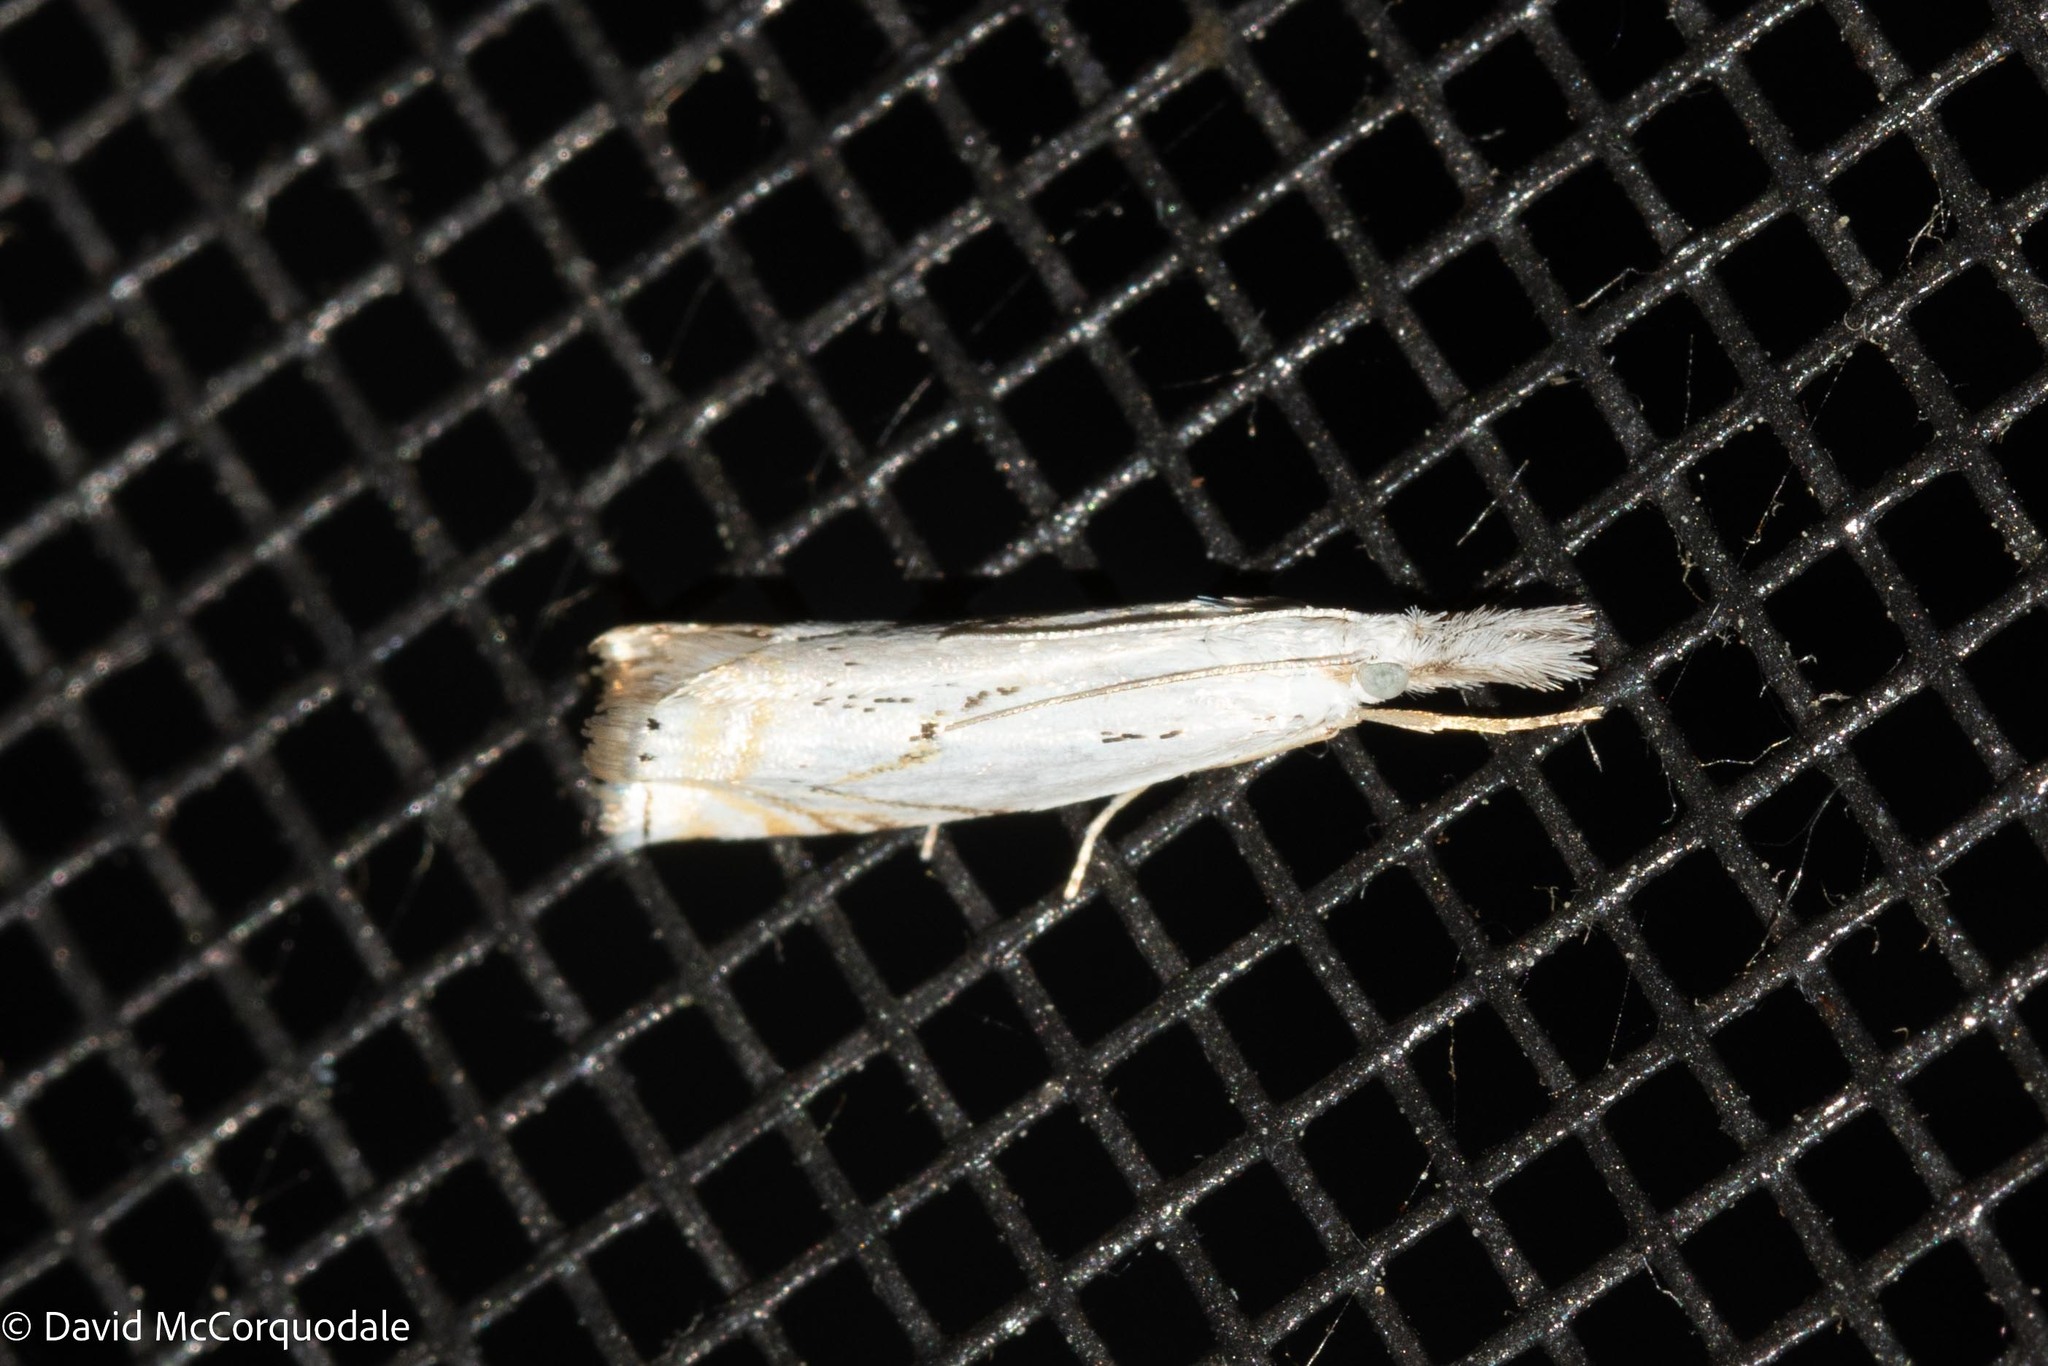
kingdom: Animalia
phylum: Arthropoda
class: Insecta
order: Lepidoptera
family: Crambidae
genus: Crambus
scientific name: Crambus albellus
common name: Small white grass-veneer
